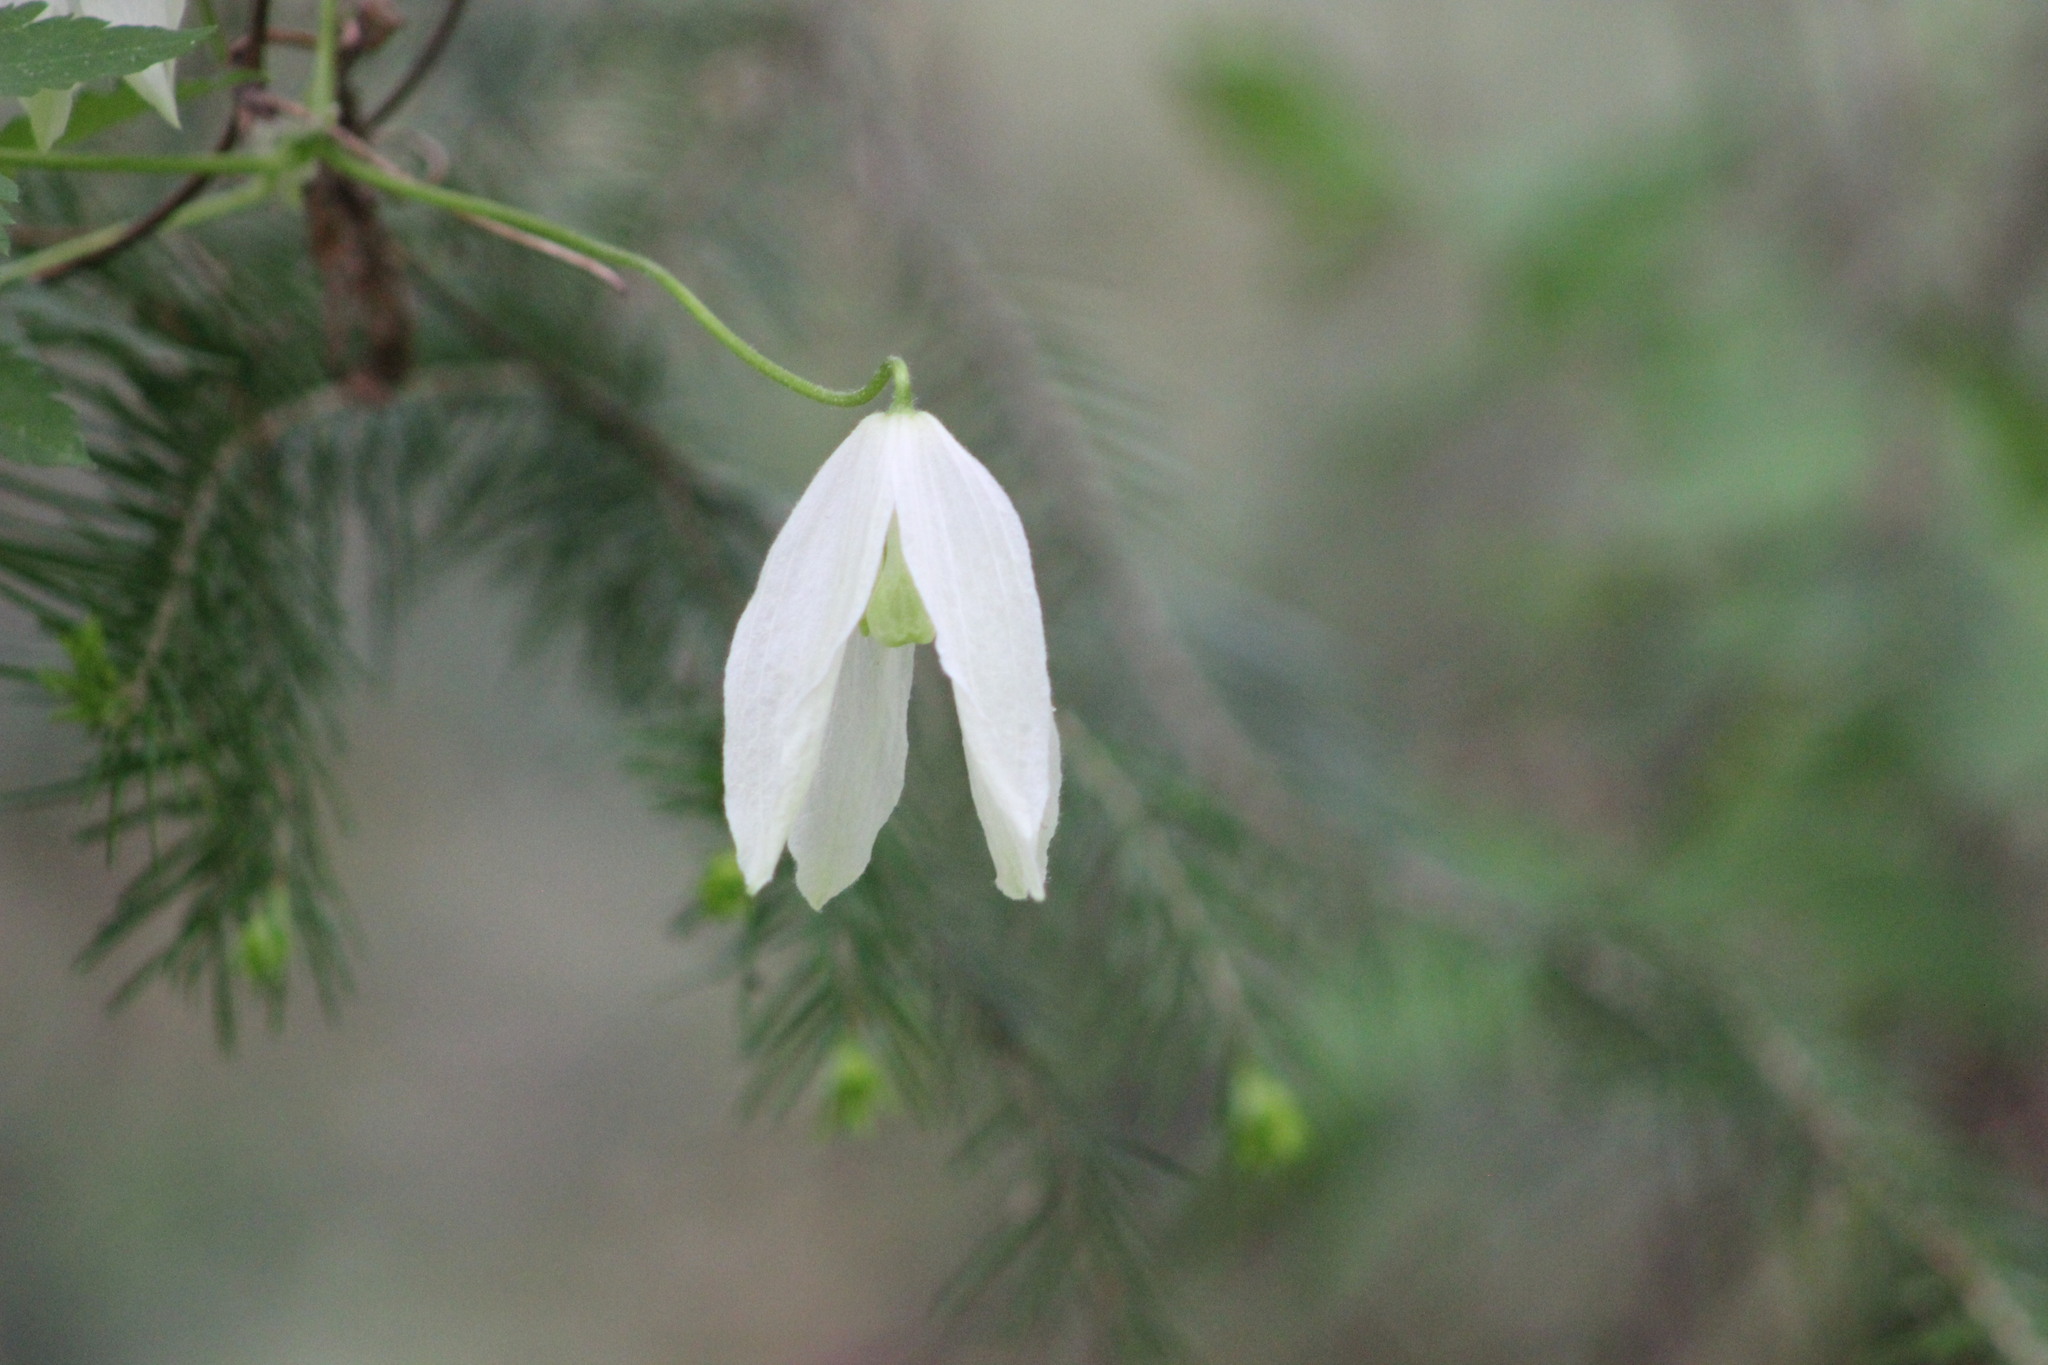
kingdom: Plantae
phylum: Tracheophyta
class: Magnoliopsida
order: Ranunculales
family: Ranunculaceae
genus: Clematis
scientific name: Clematis sibirica
